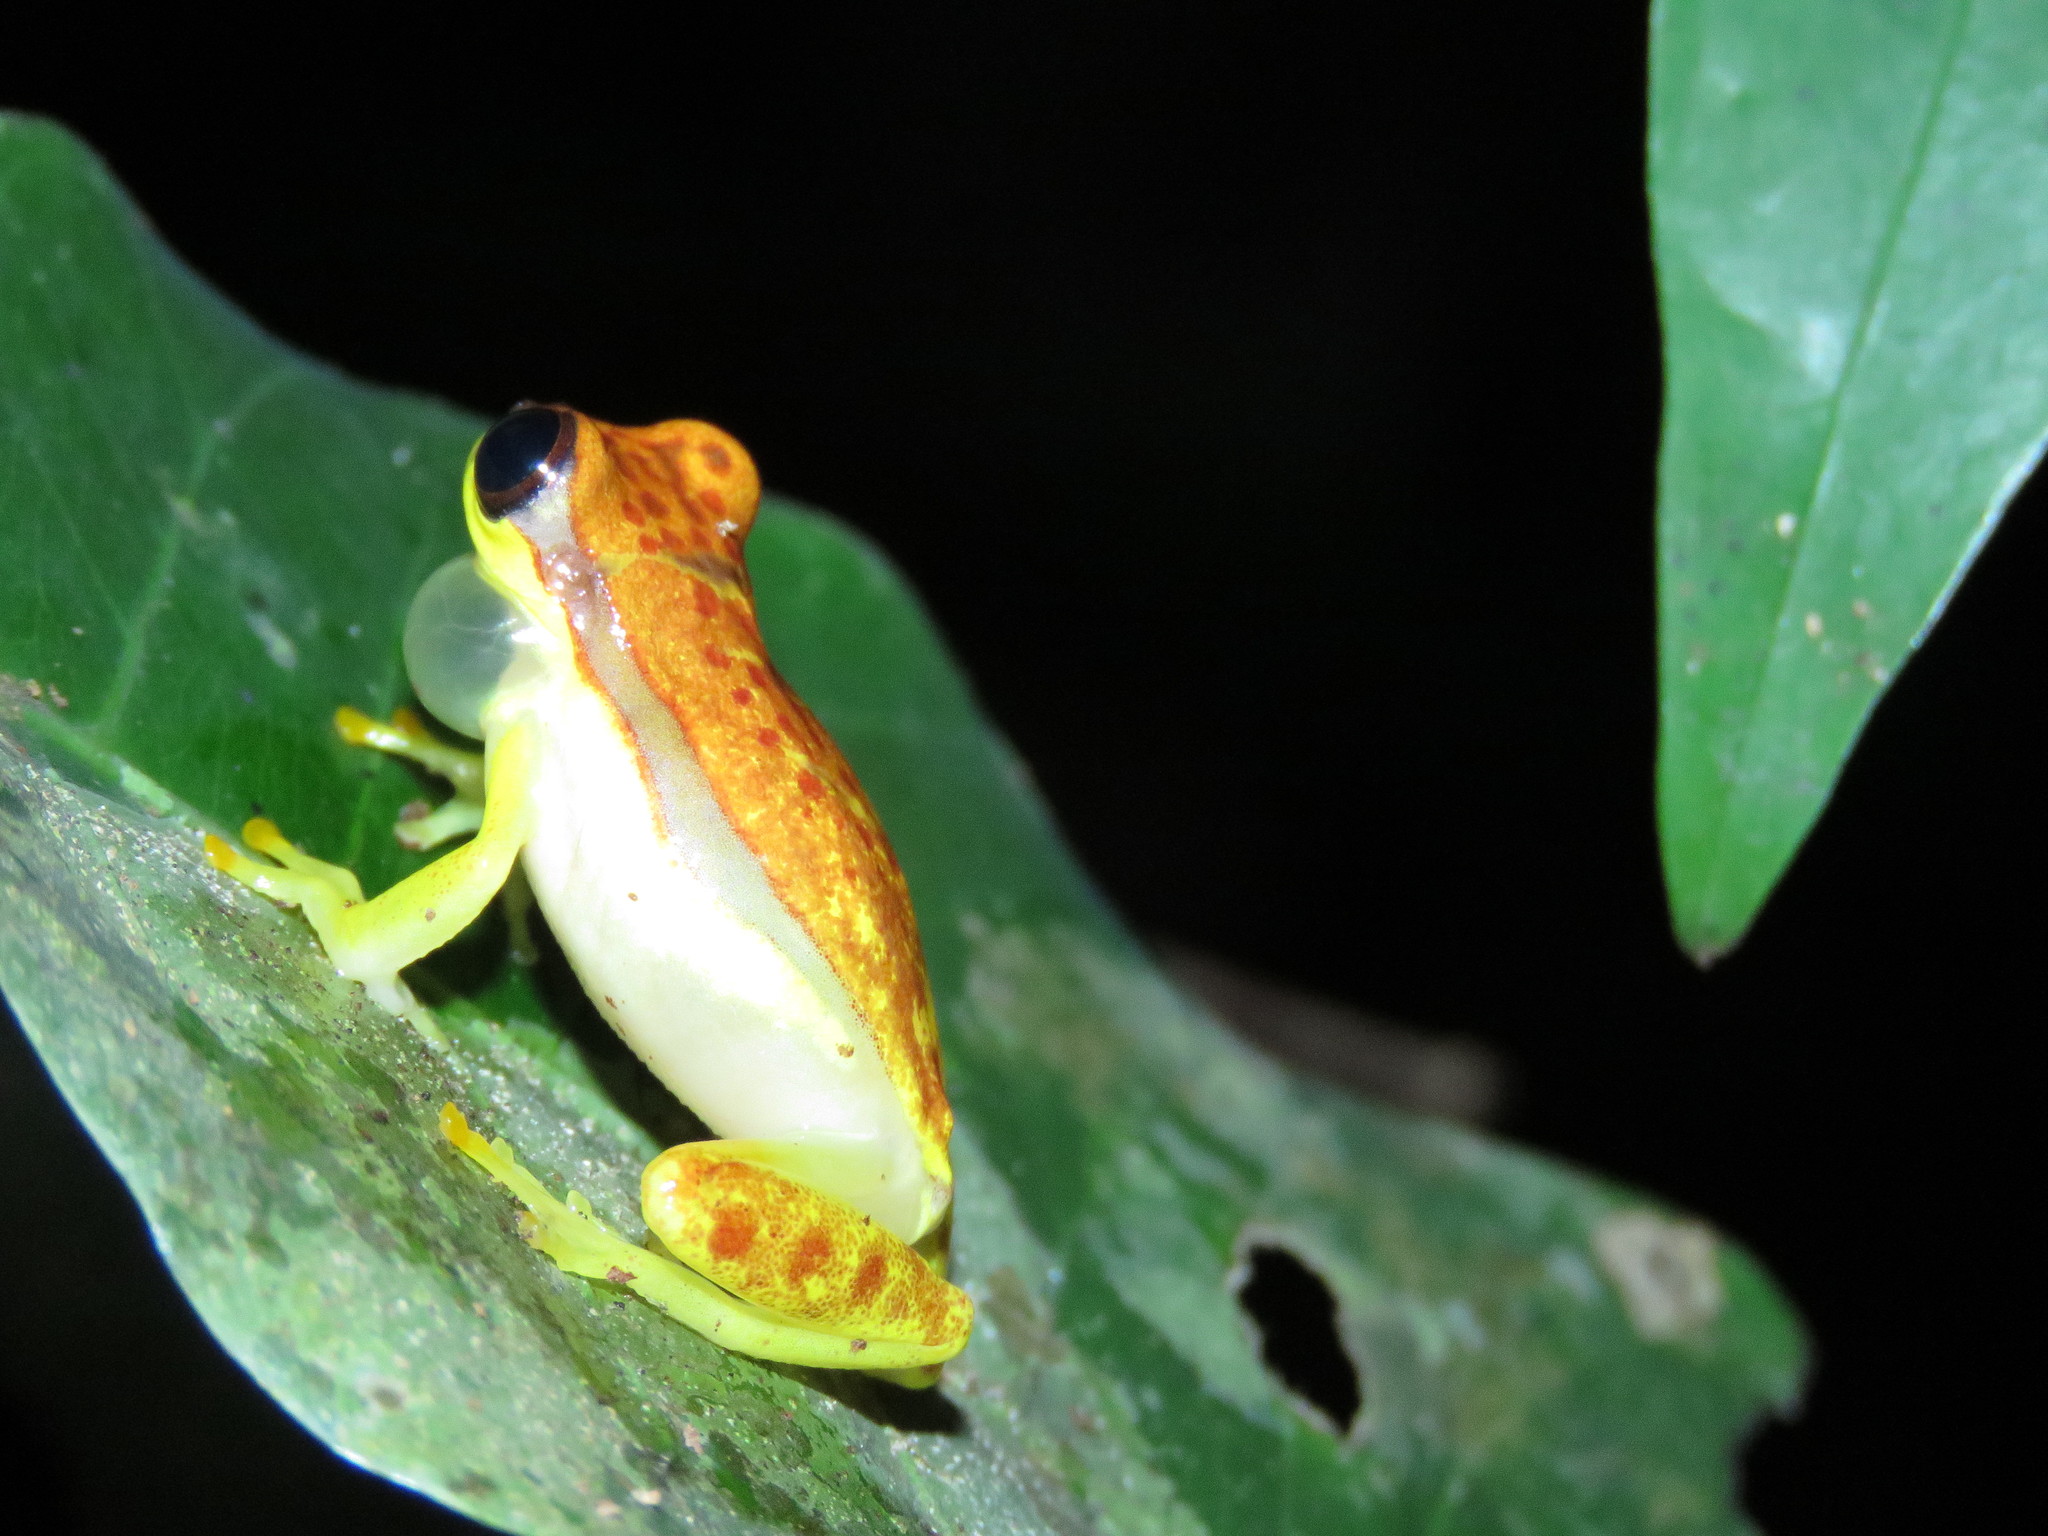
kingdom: Animalia
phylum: Chordata
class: Amphibia
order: Anura
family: Hylidae
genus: Dendropsophus
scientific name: Dendropsophus rhodopeplus
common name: Red-skirted treefrog
